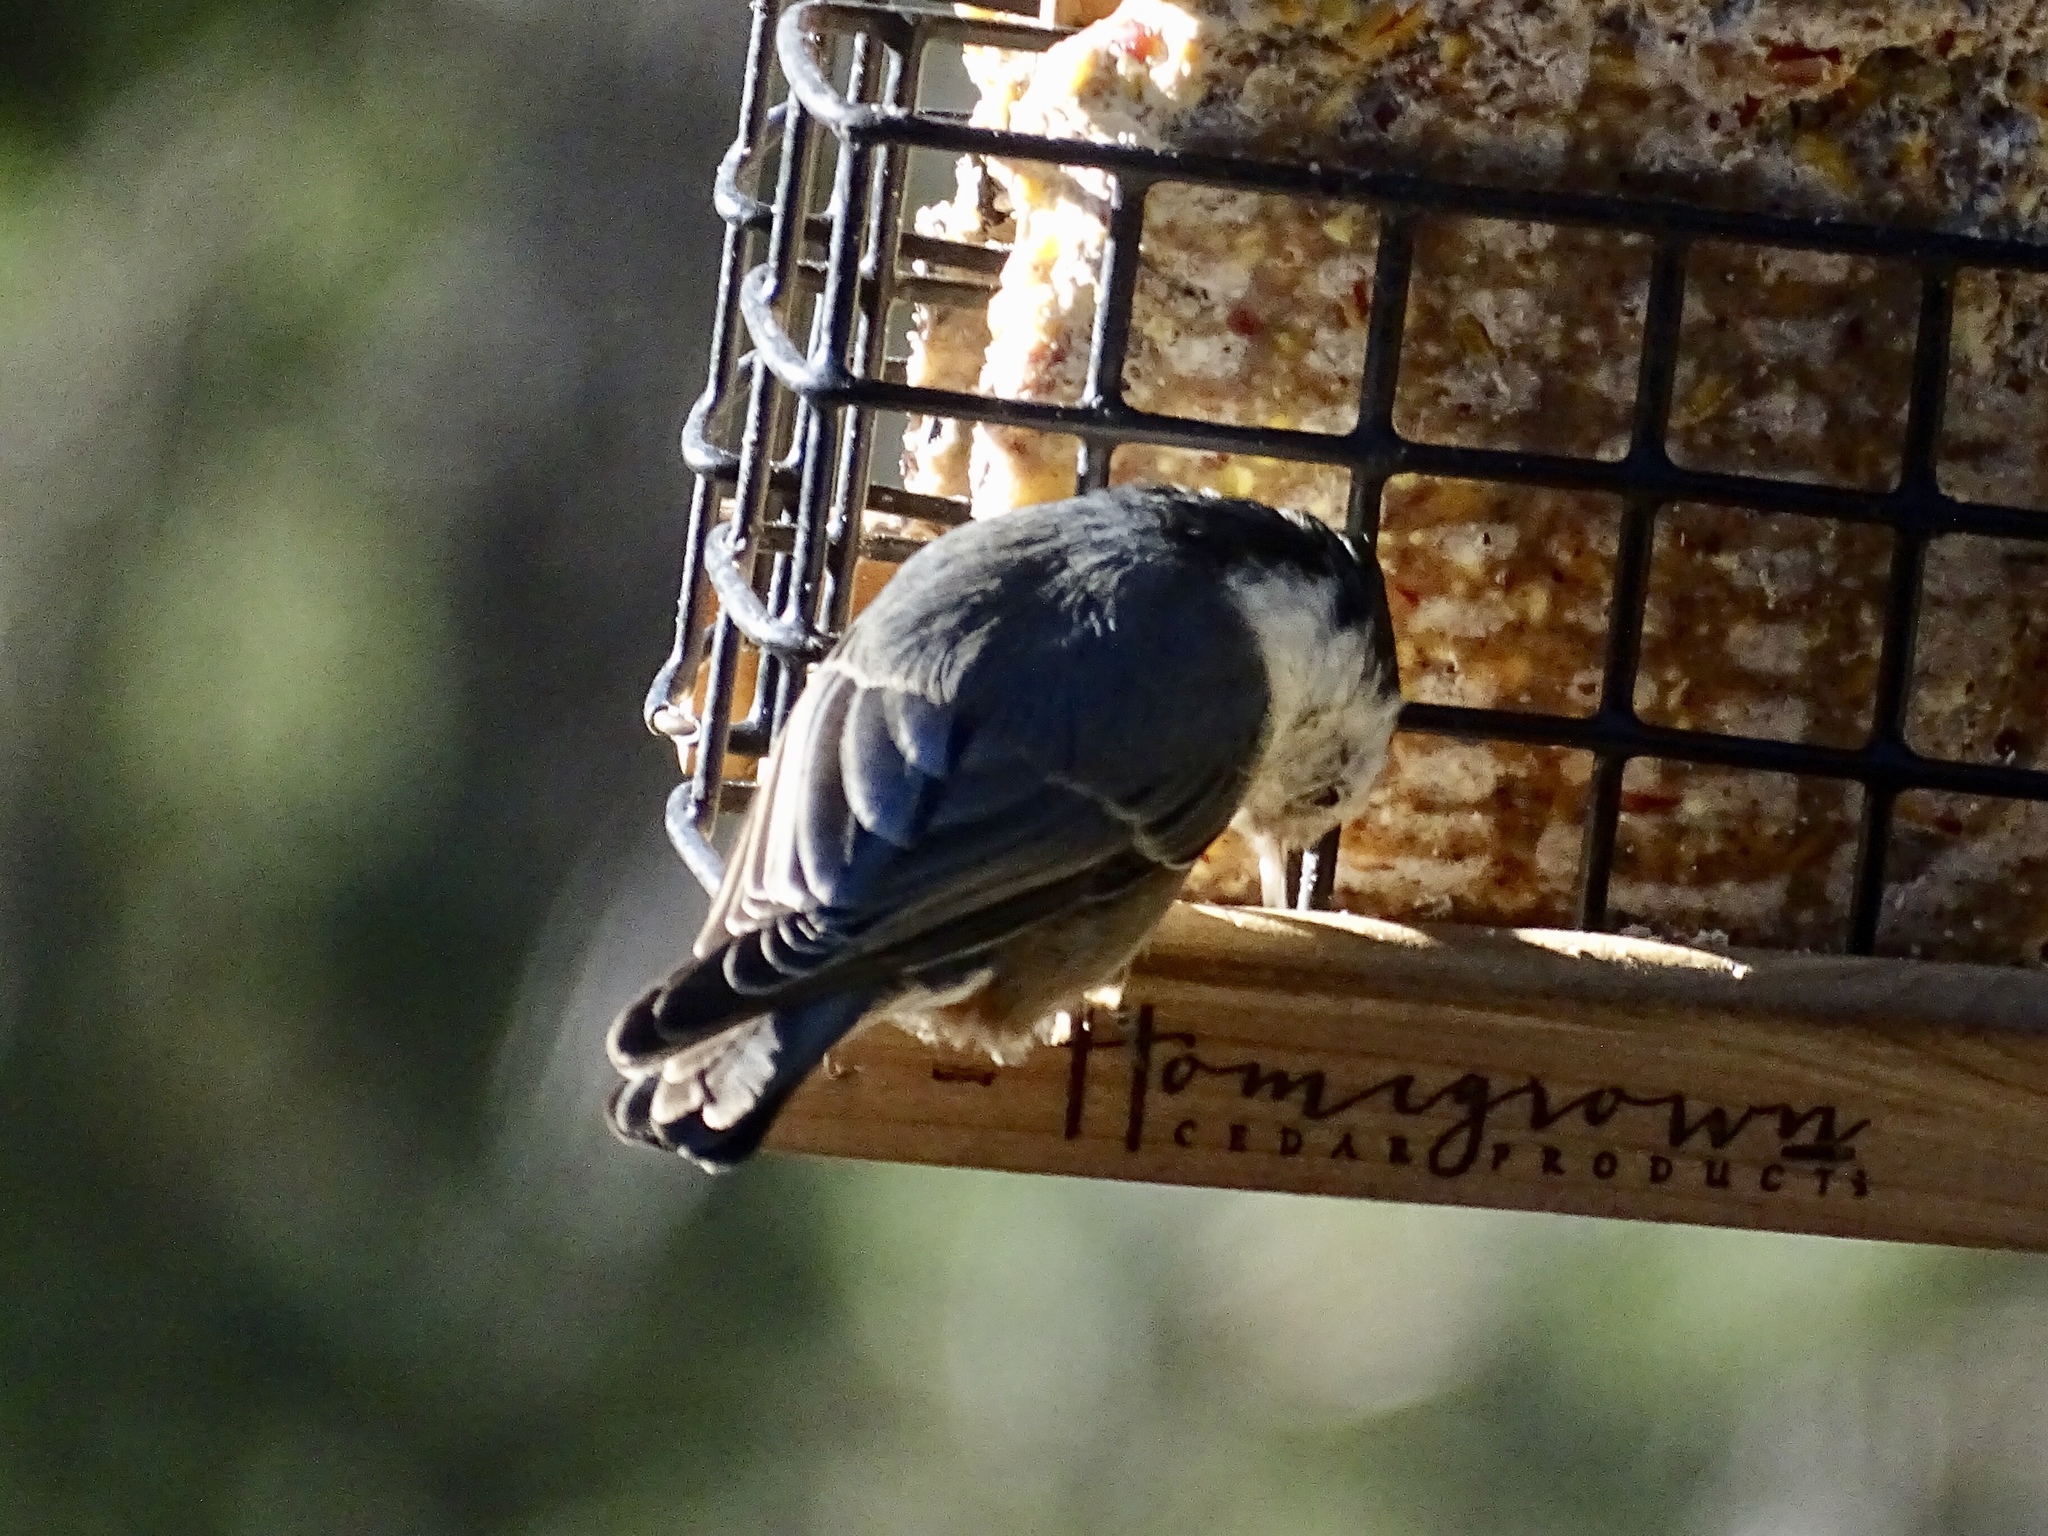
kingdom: Animalia
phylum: Chordata
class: Aves
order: Passeriformes
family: Sittidae
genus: Sitta
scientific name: Sitta carolinensis
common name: White-breasted nuthatch
